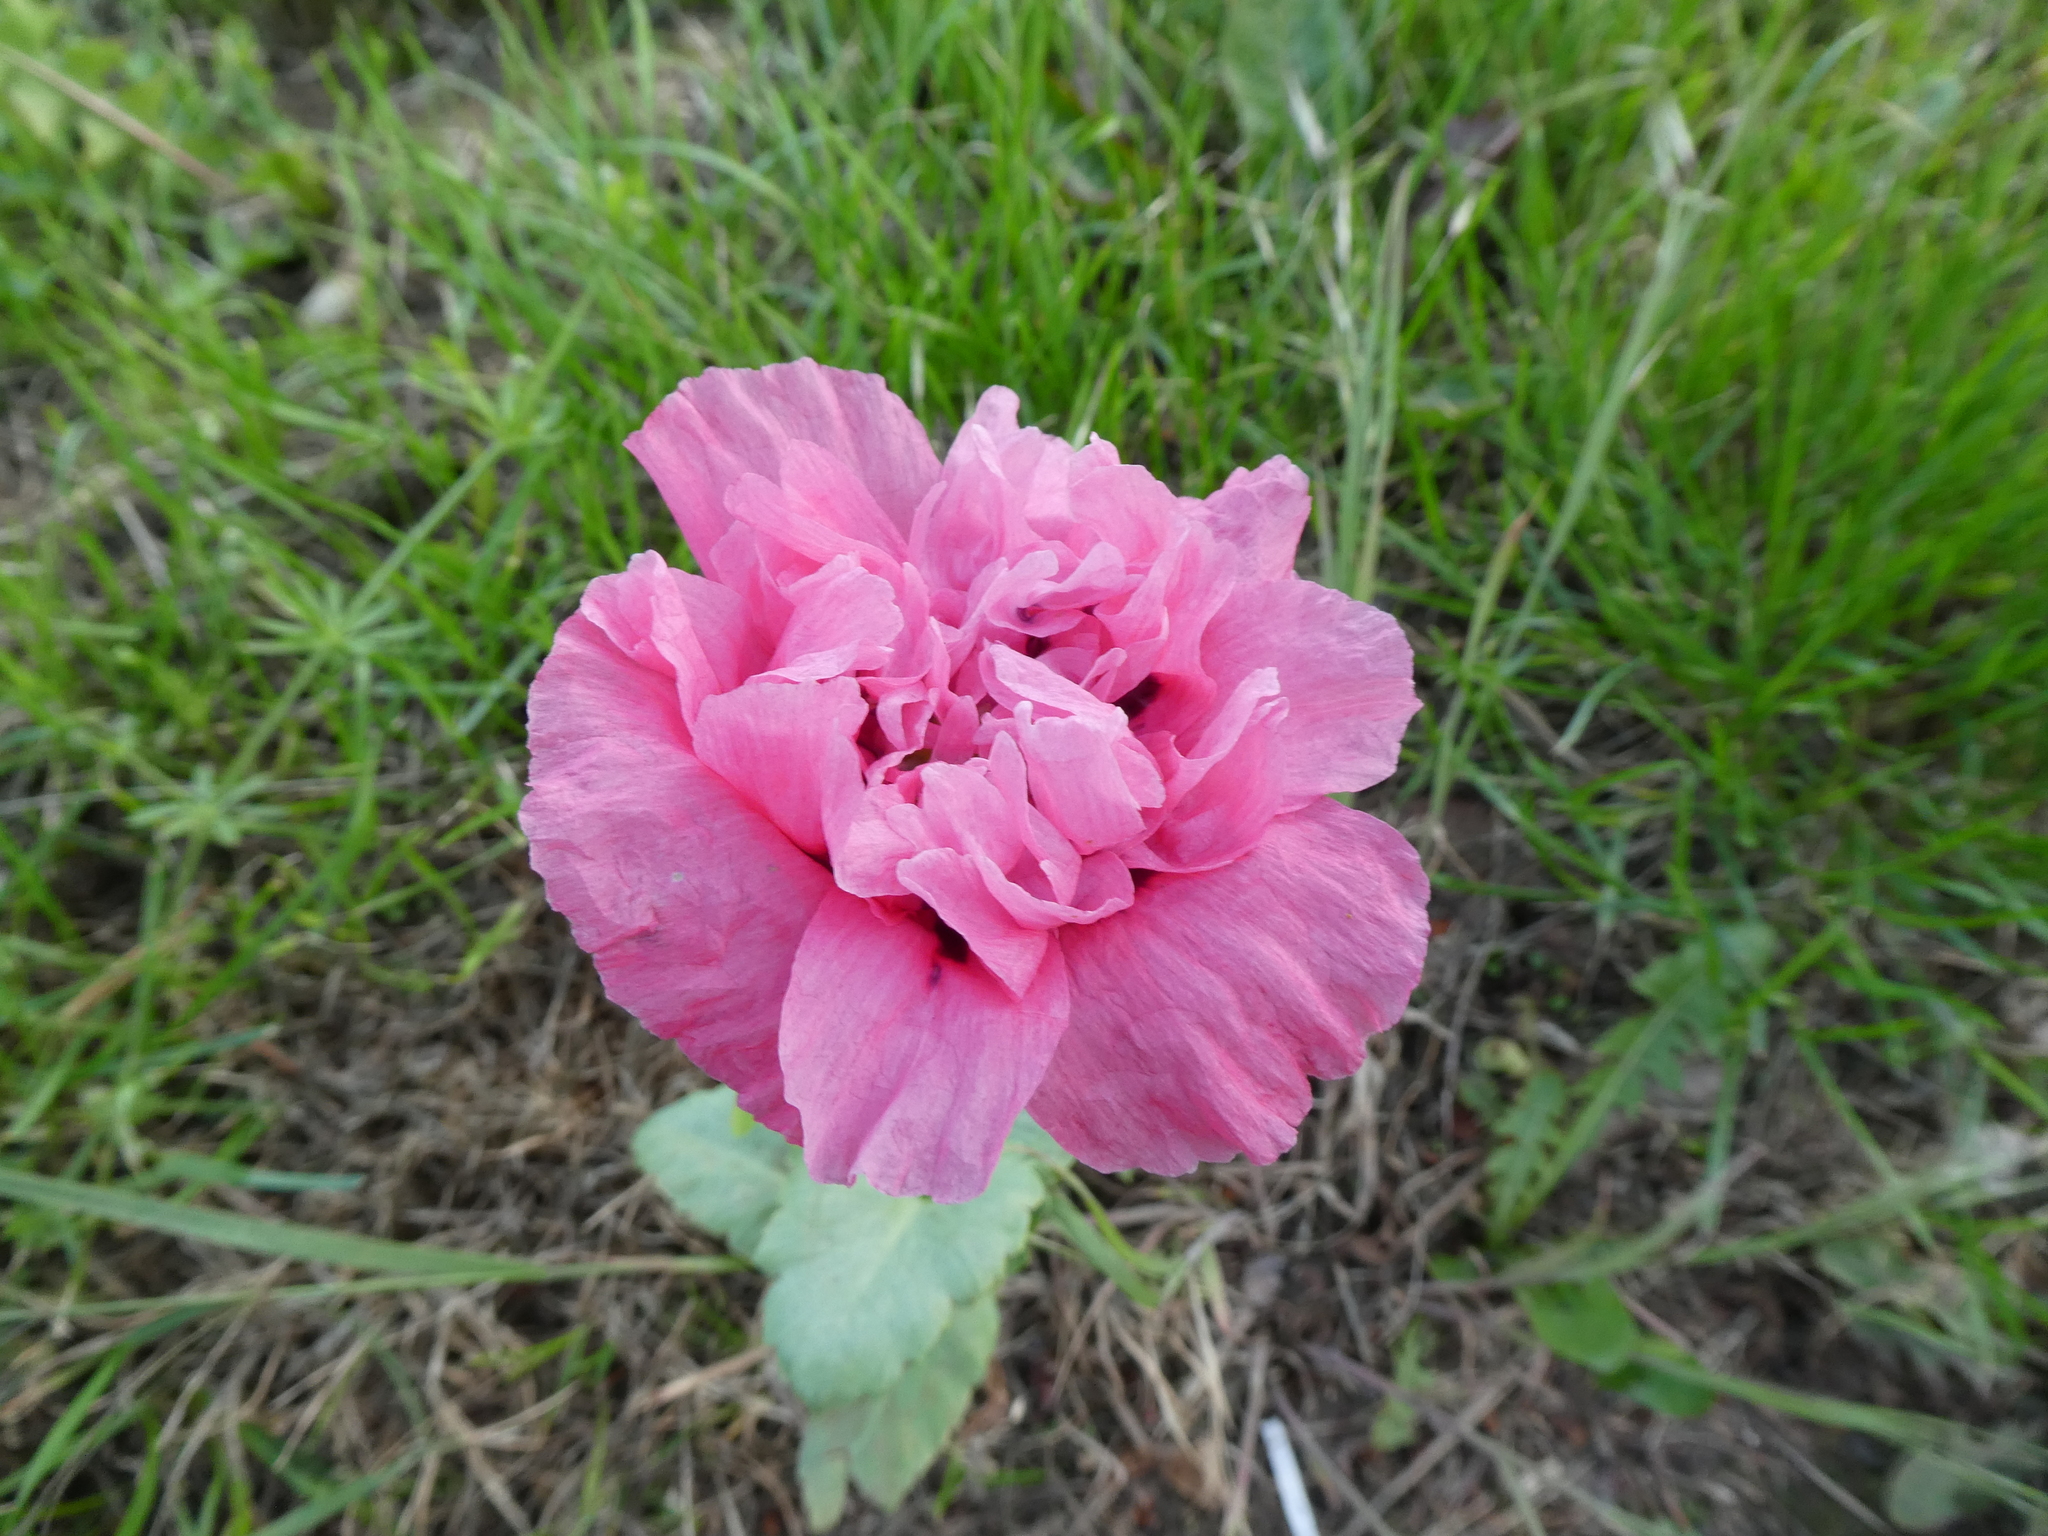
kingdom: Plantae
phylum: Tracheophyta
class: Magnoliopsida
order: Ranunculales
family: Papaveraceae
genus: Papaver
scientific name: Papaver somniferum
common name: Opium poppy
